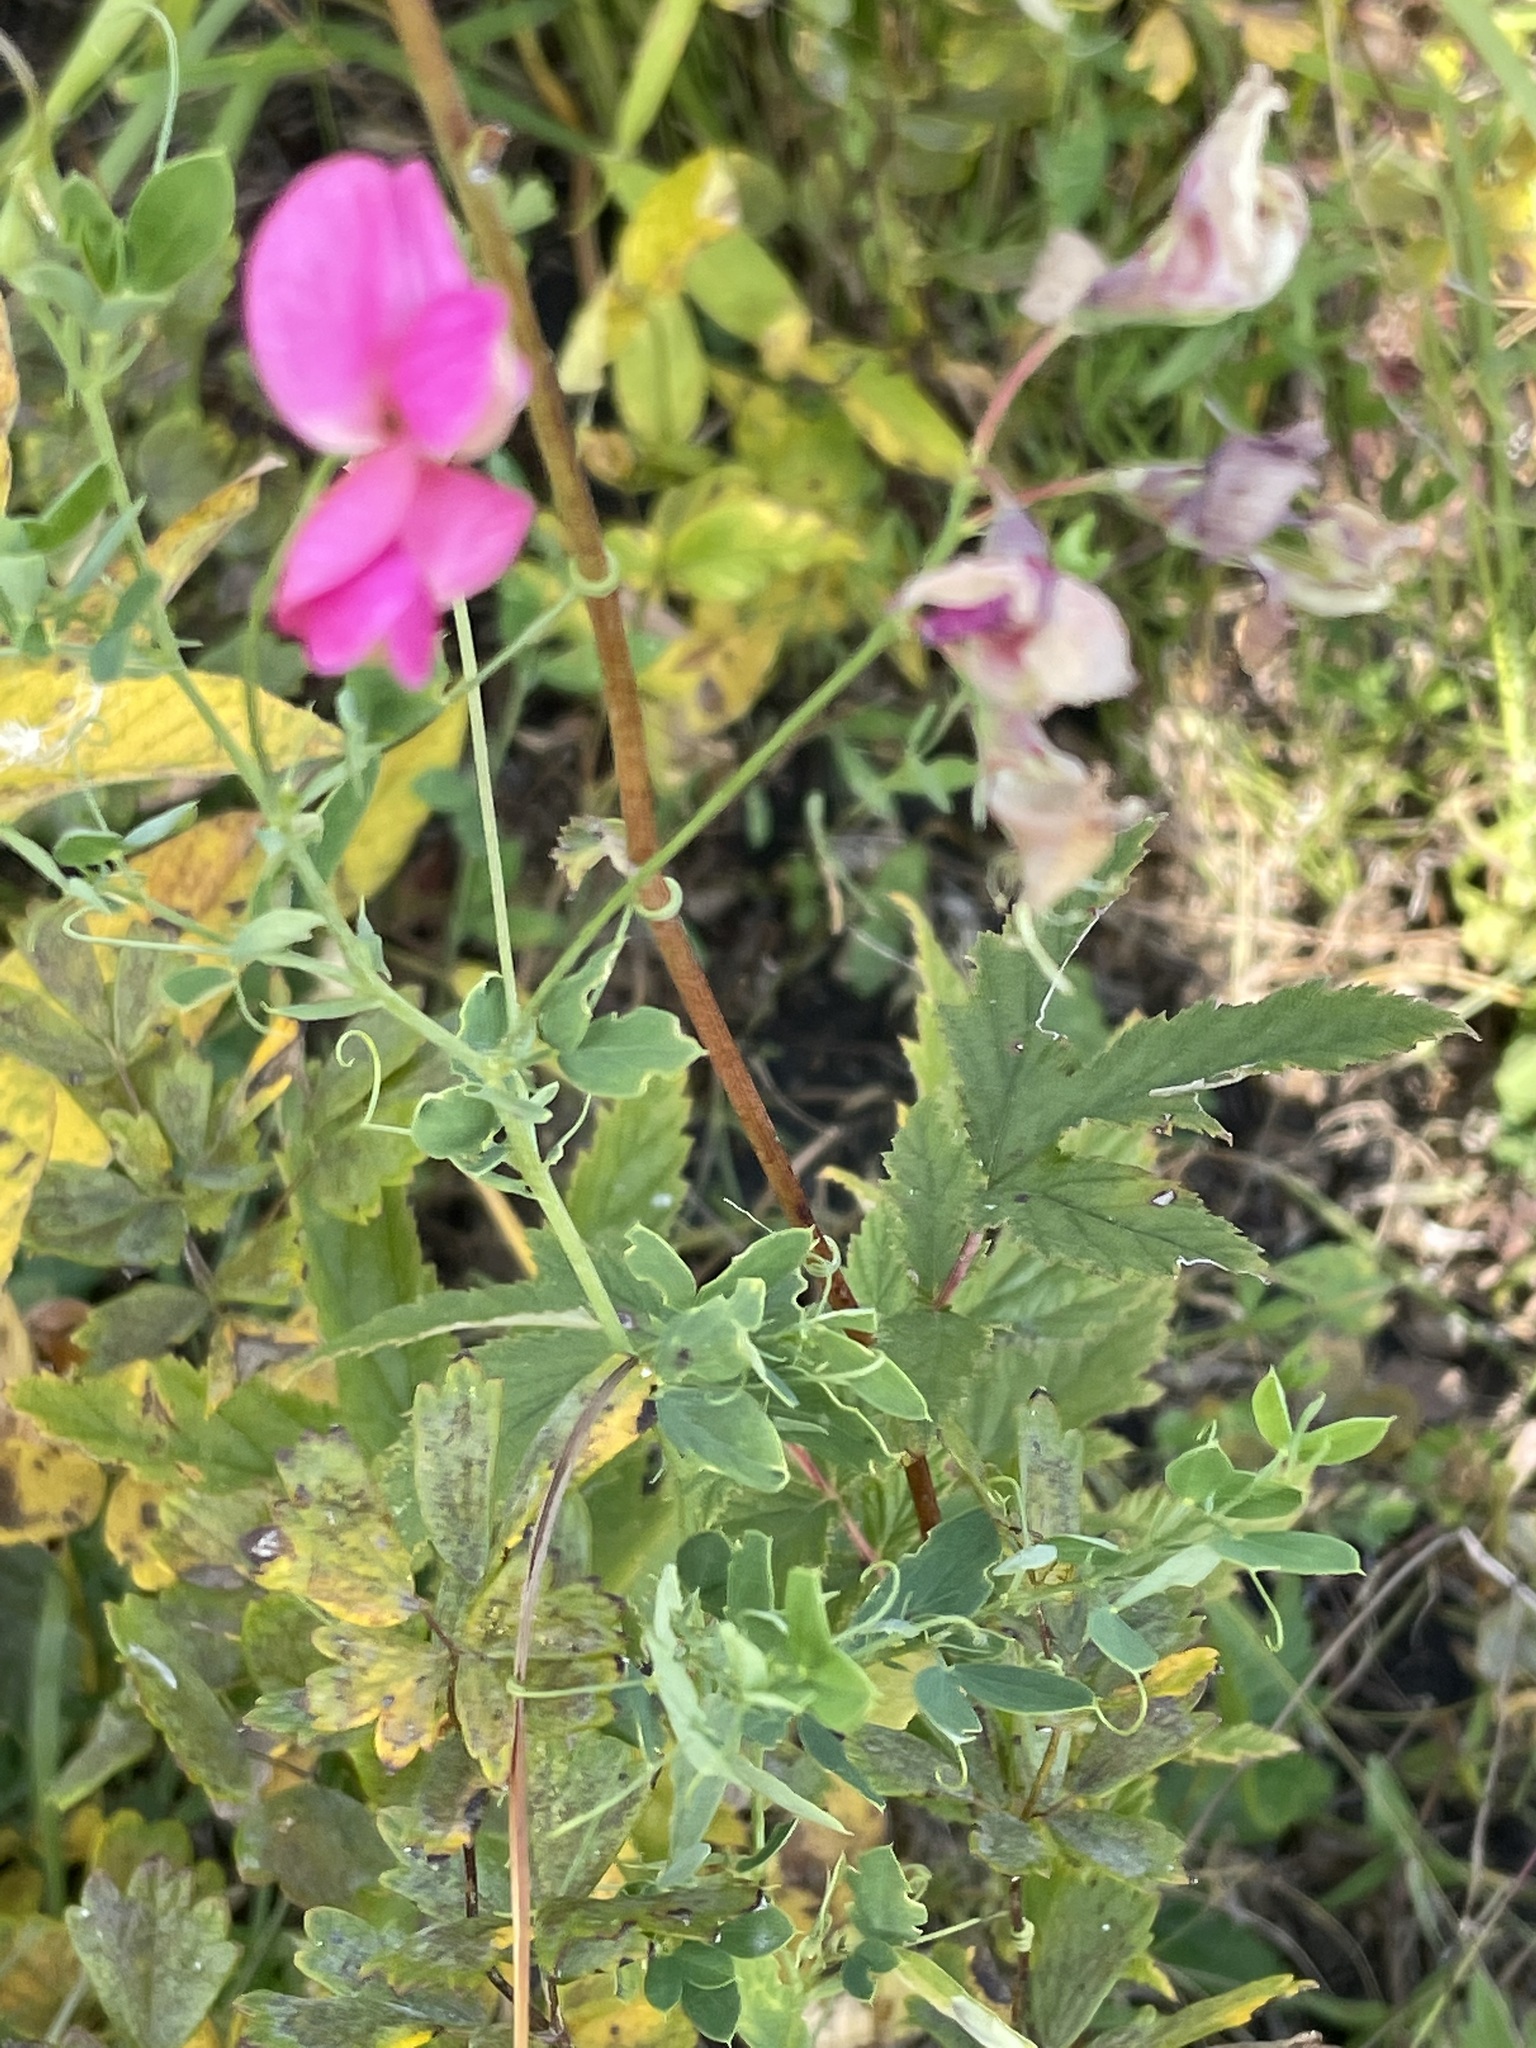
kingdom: Plantae
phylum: Tracheophyta
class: Magnoliopsida
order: Fabales
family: Fabaceae
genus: Lathyrus
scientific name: Lathyrus tuberosus
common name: Tuberous pea
